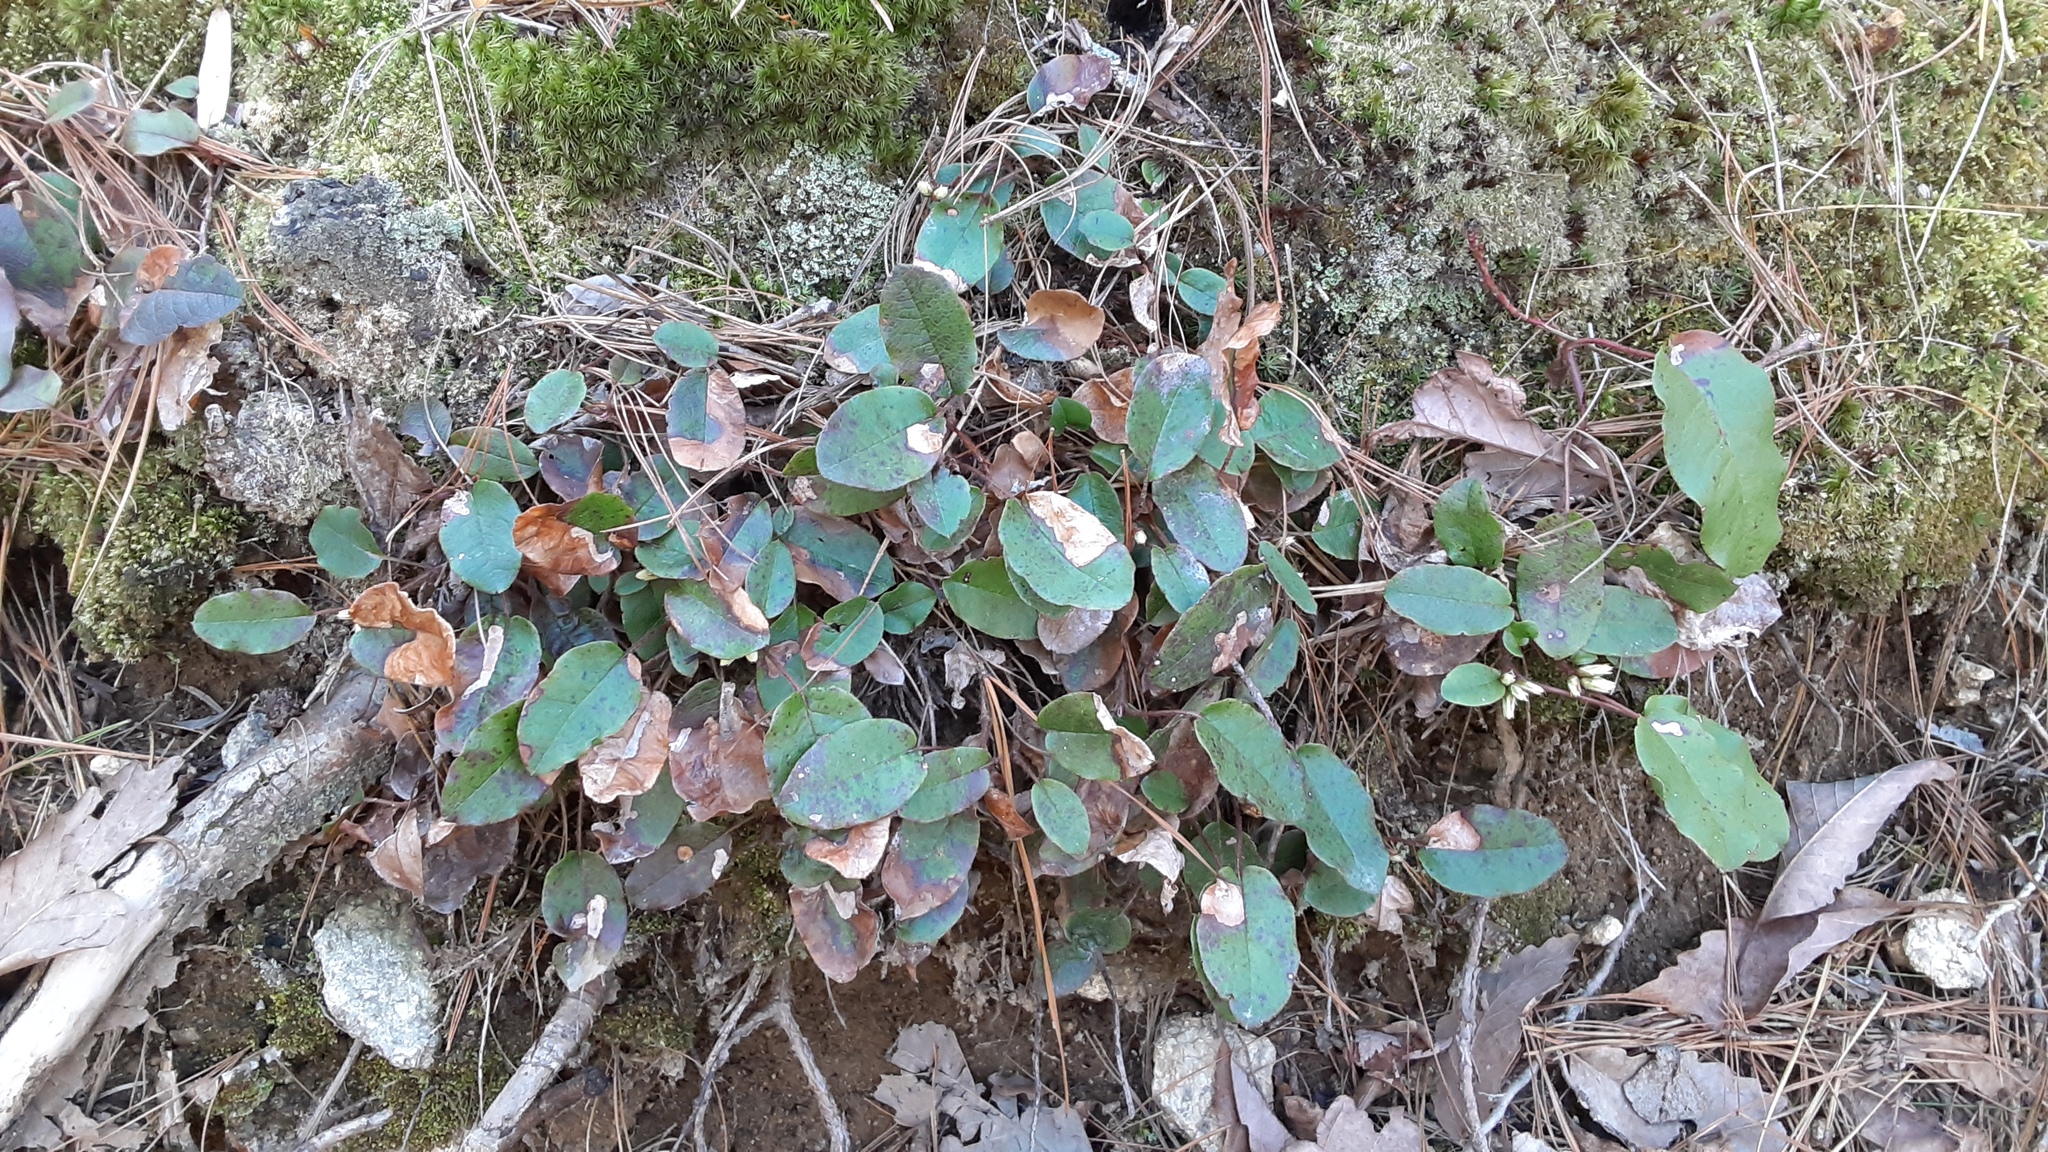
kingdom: Plantae
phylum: Tracheophyta
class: Magnoliopsida
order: Ericales
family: Ericaceae
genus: Epigaea
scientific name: Epigaea repens
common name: Gravelroot
